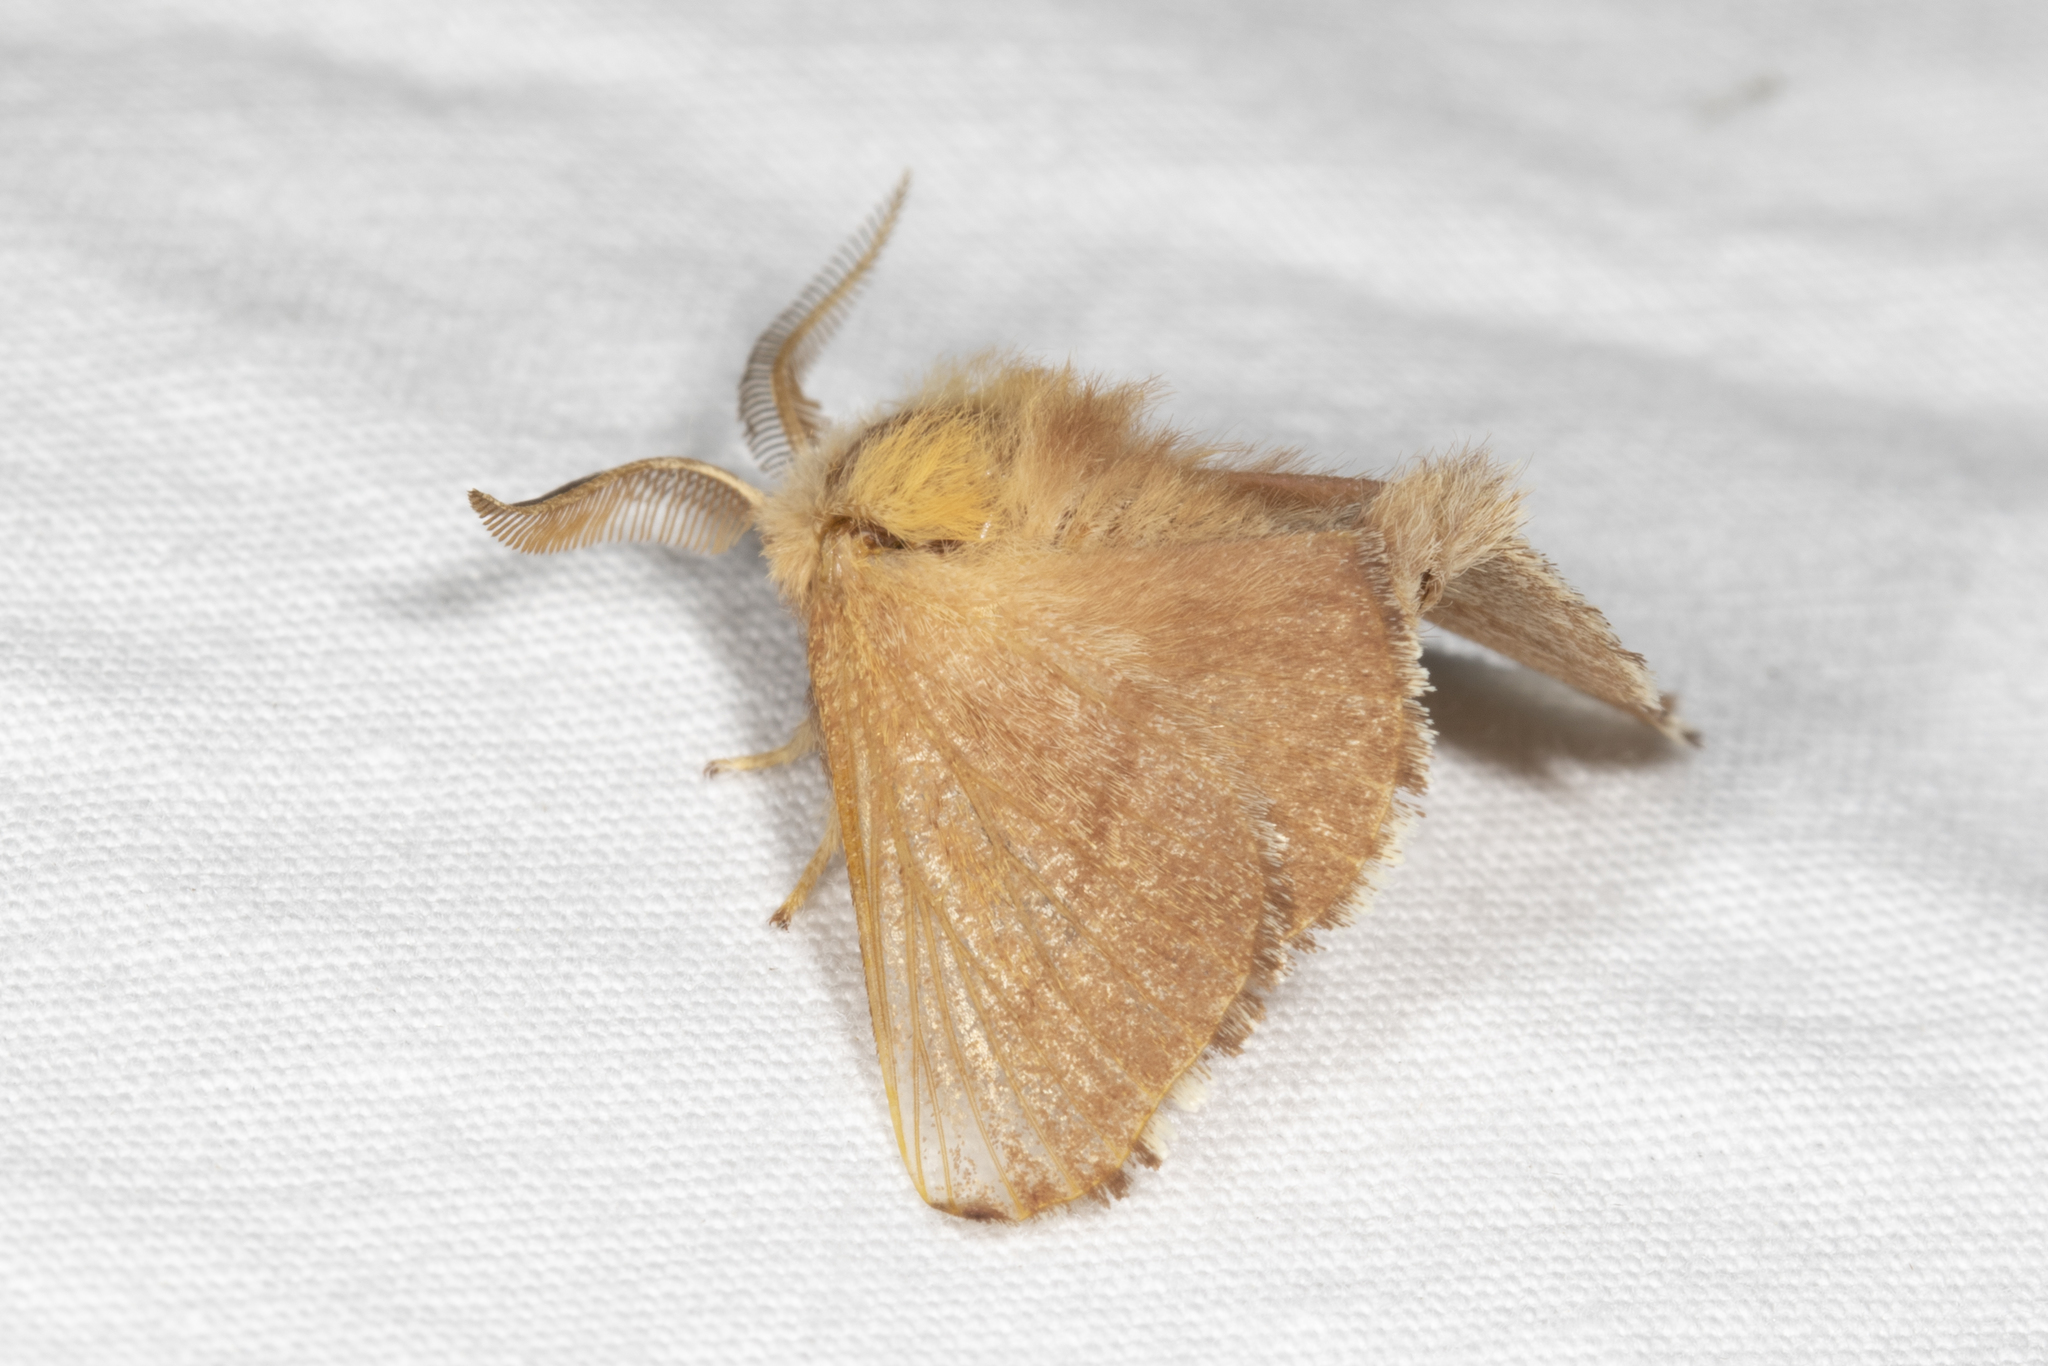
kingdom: Animalia
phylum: Arthropoda
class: Insecta
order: Lepidoptera
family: Lasiocampidae
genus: Malacosoma
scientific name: Malacosoma disstria
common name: Forest tent caterpillar
